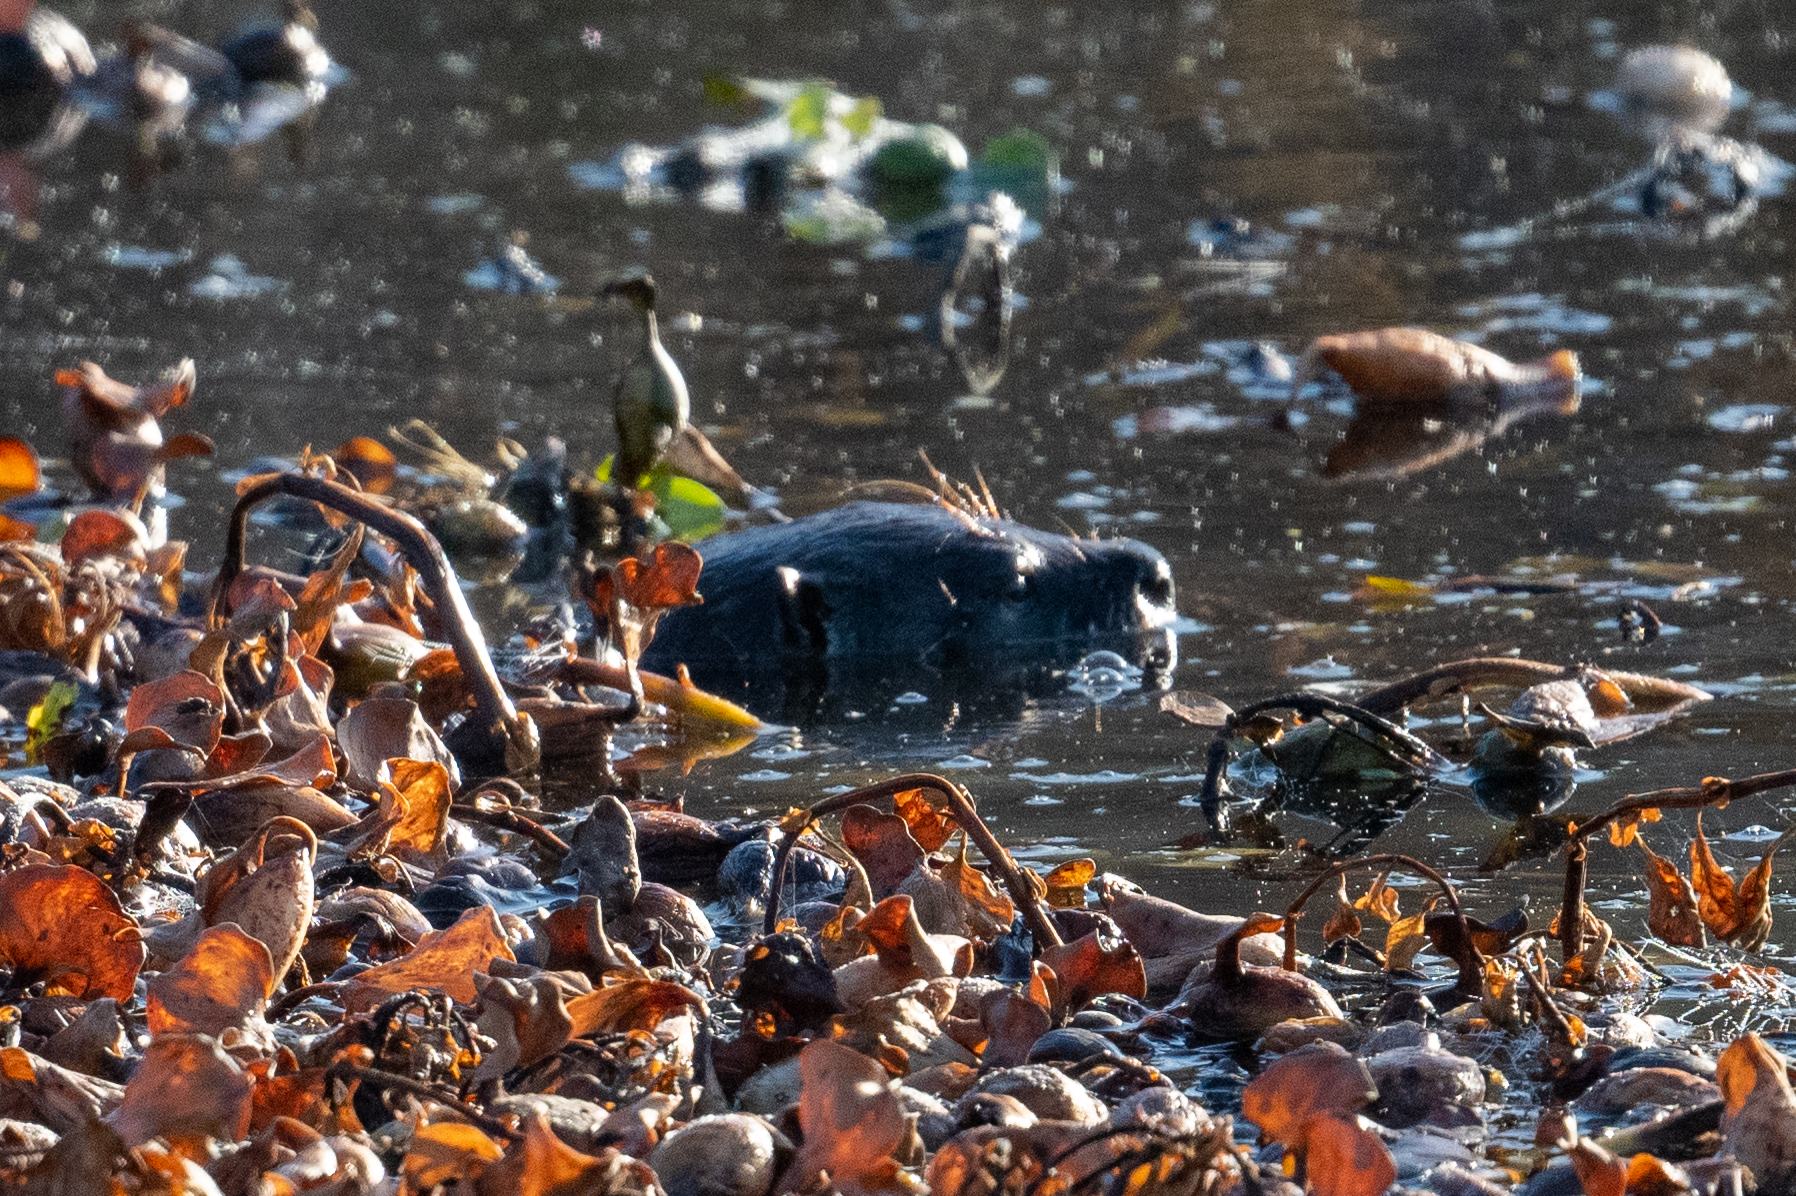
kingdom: Animalia
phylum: Chordata
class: Mammalia
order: Carnivora
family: Mustelidae
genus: Lontra
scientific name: Lontra canadensis
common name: North american river otter
